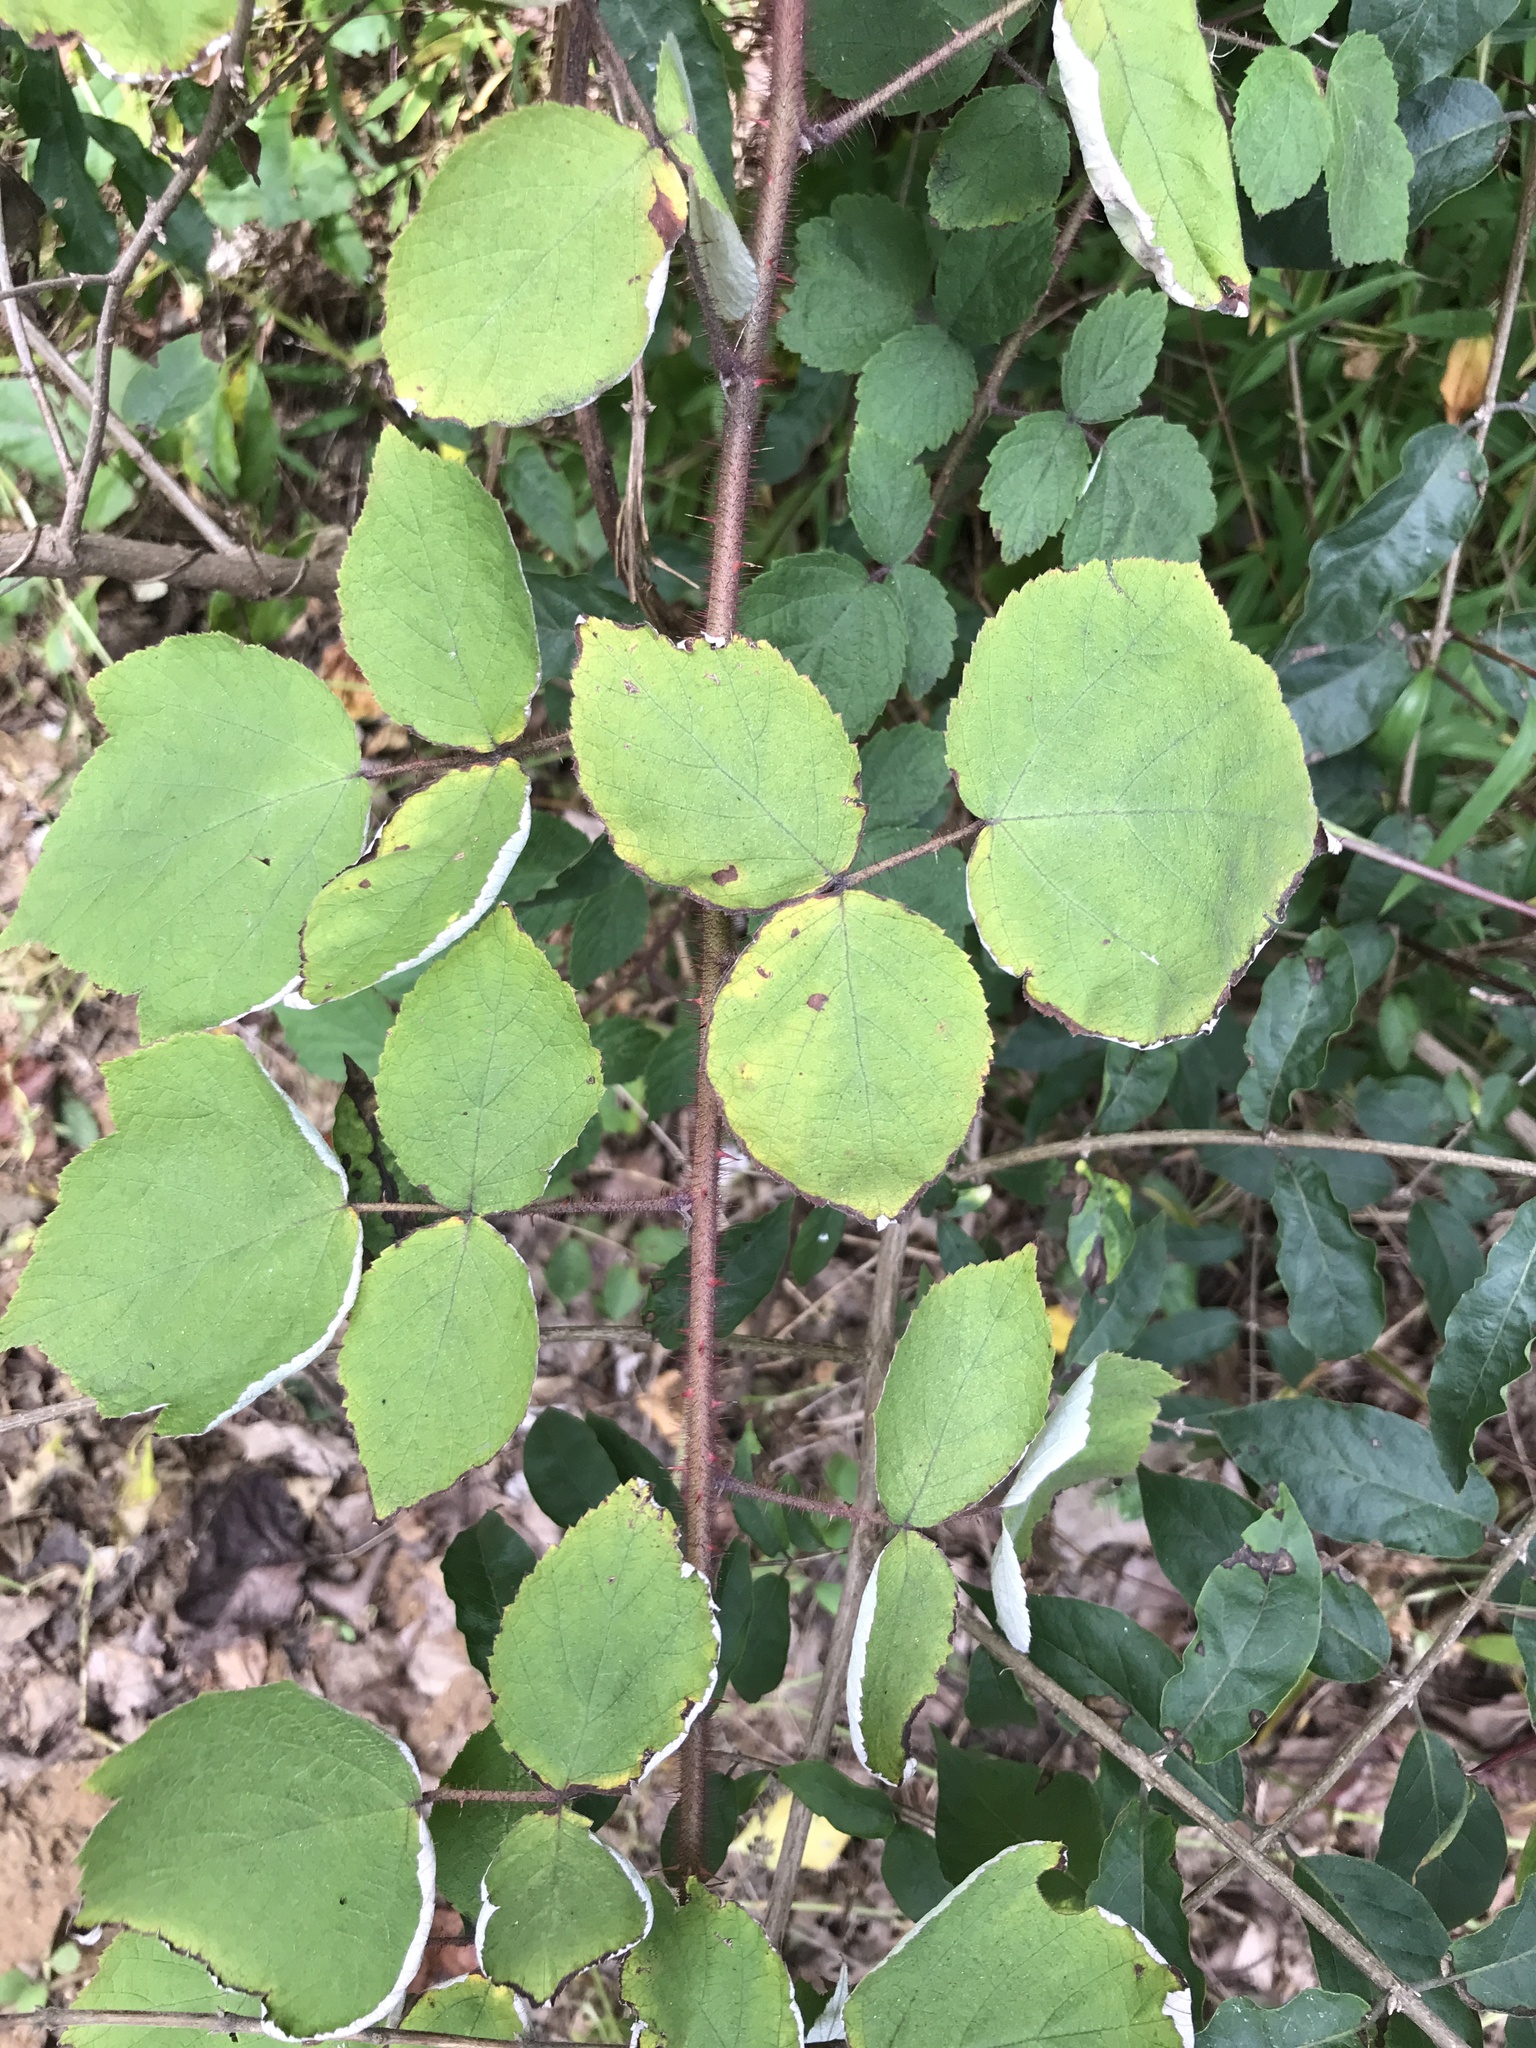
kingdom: Plantae
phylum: Tracheophyta
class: Magnoliopsida
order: Rosales
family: Rosaceae
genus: Rubus
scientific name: Rubus phoenicolasius
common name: Japanese wineberry
